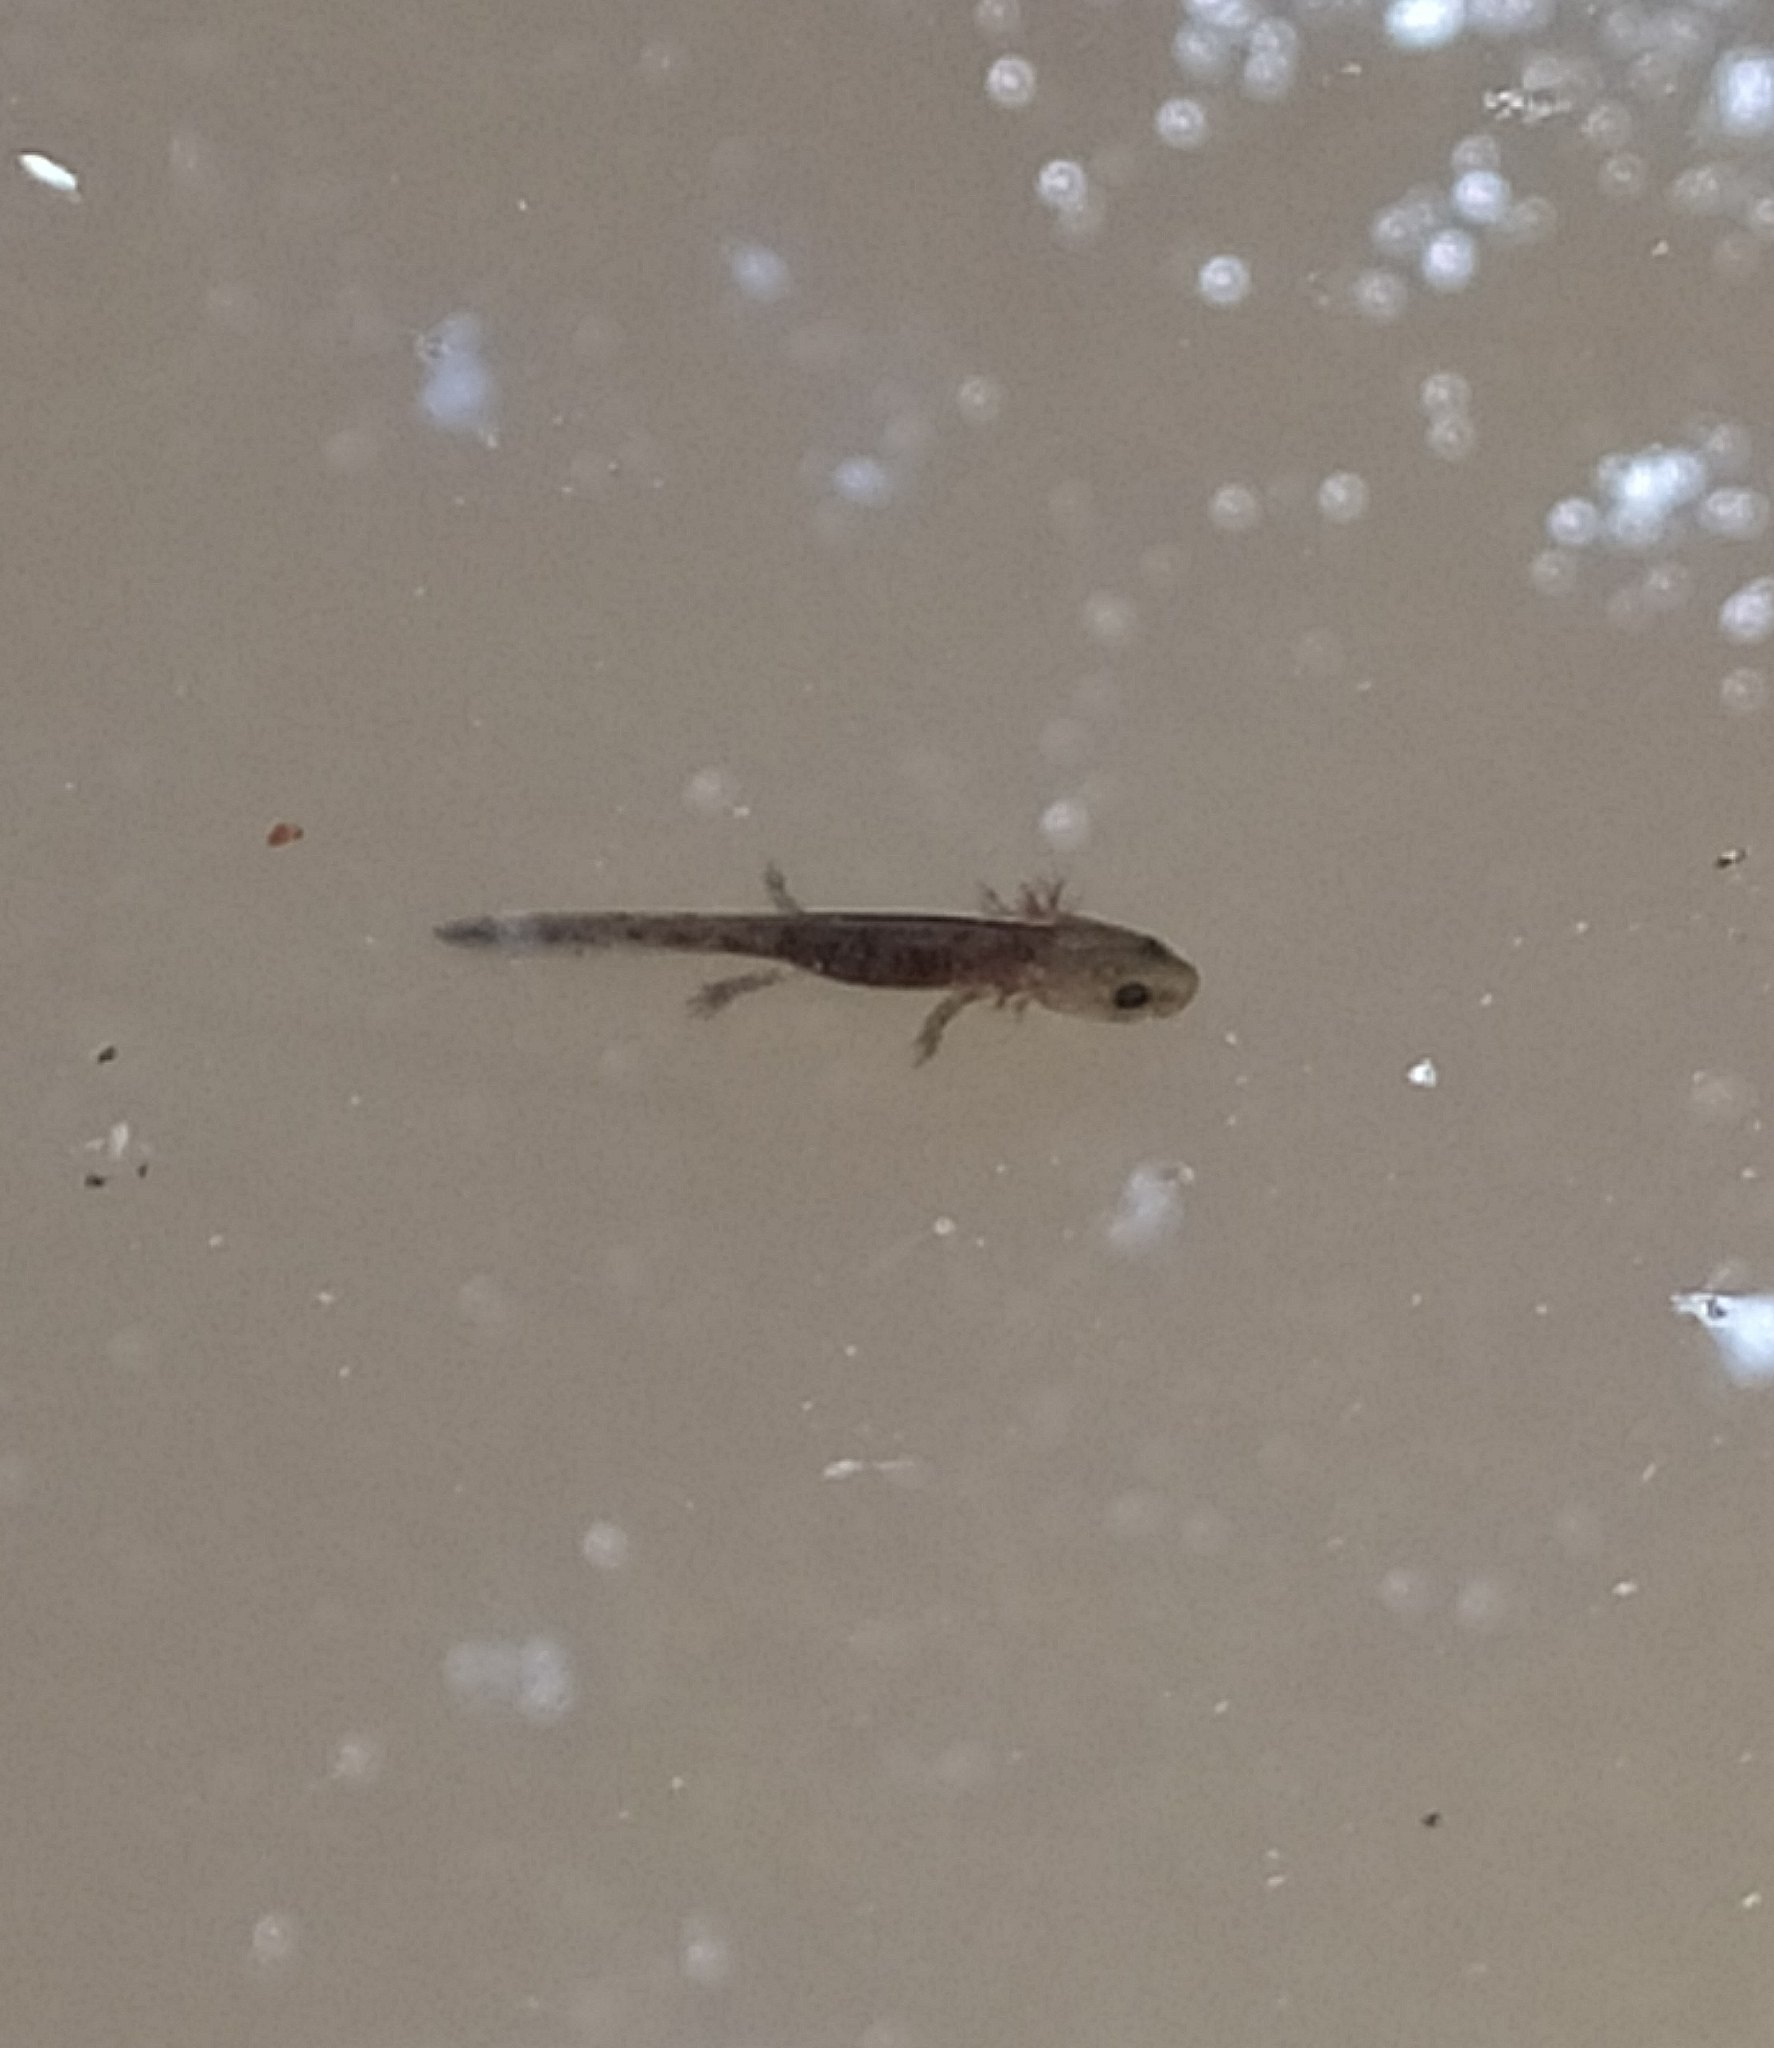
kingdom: Animalia
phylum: Chordata
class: Amphibia
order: Caudata
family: Salamandridae
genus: Salamandra
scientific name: Salamandra salamandra
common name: Fire salamander
